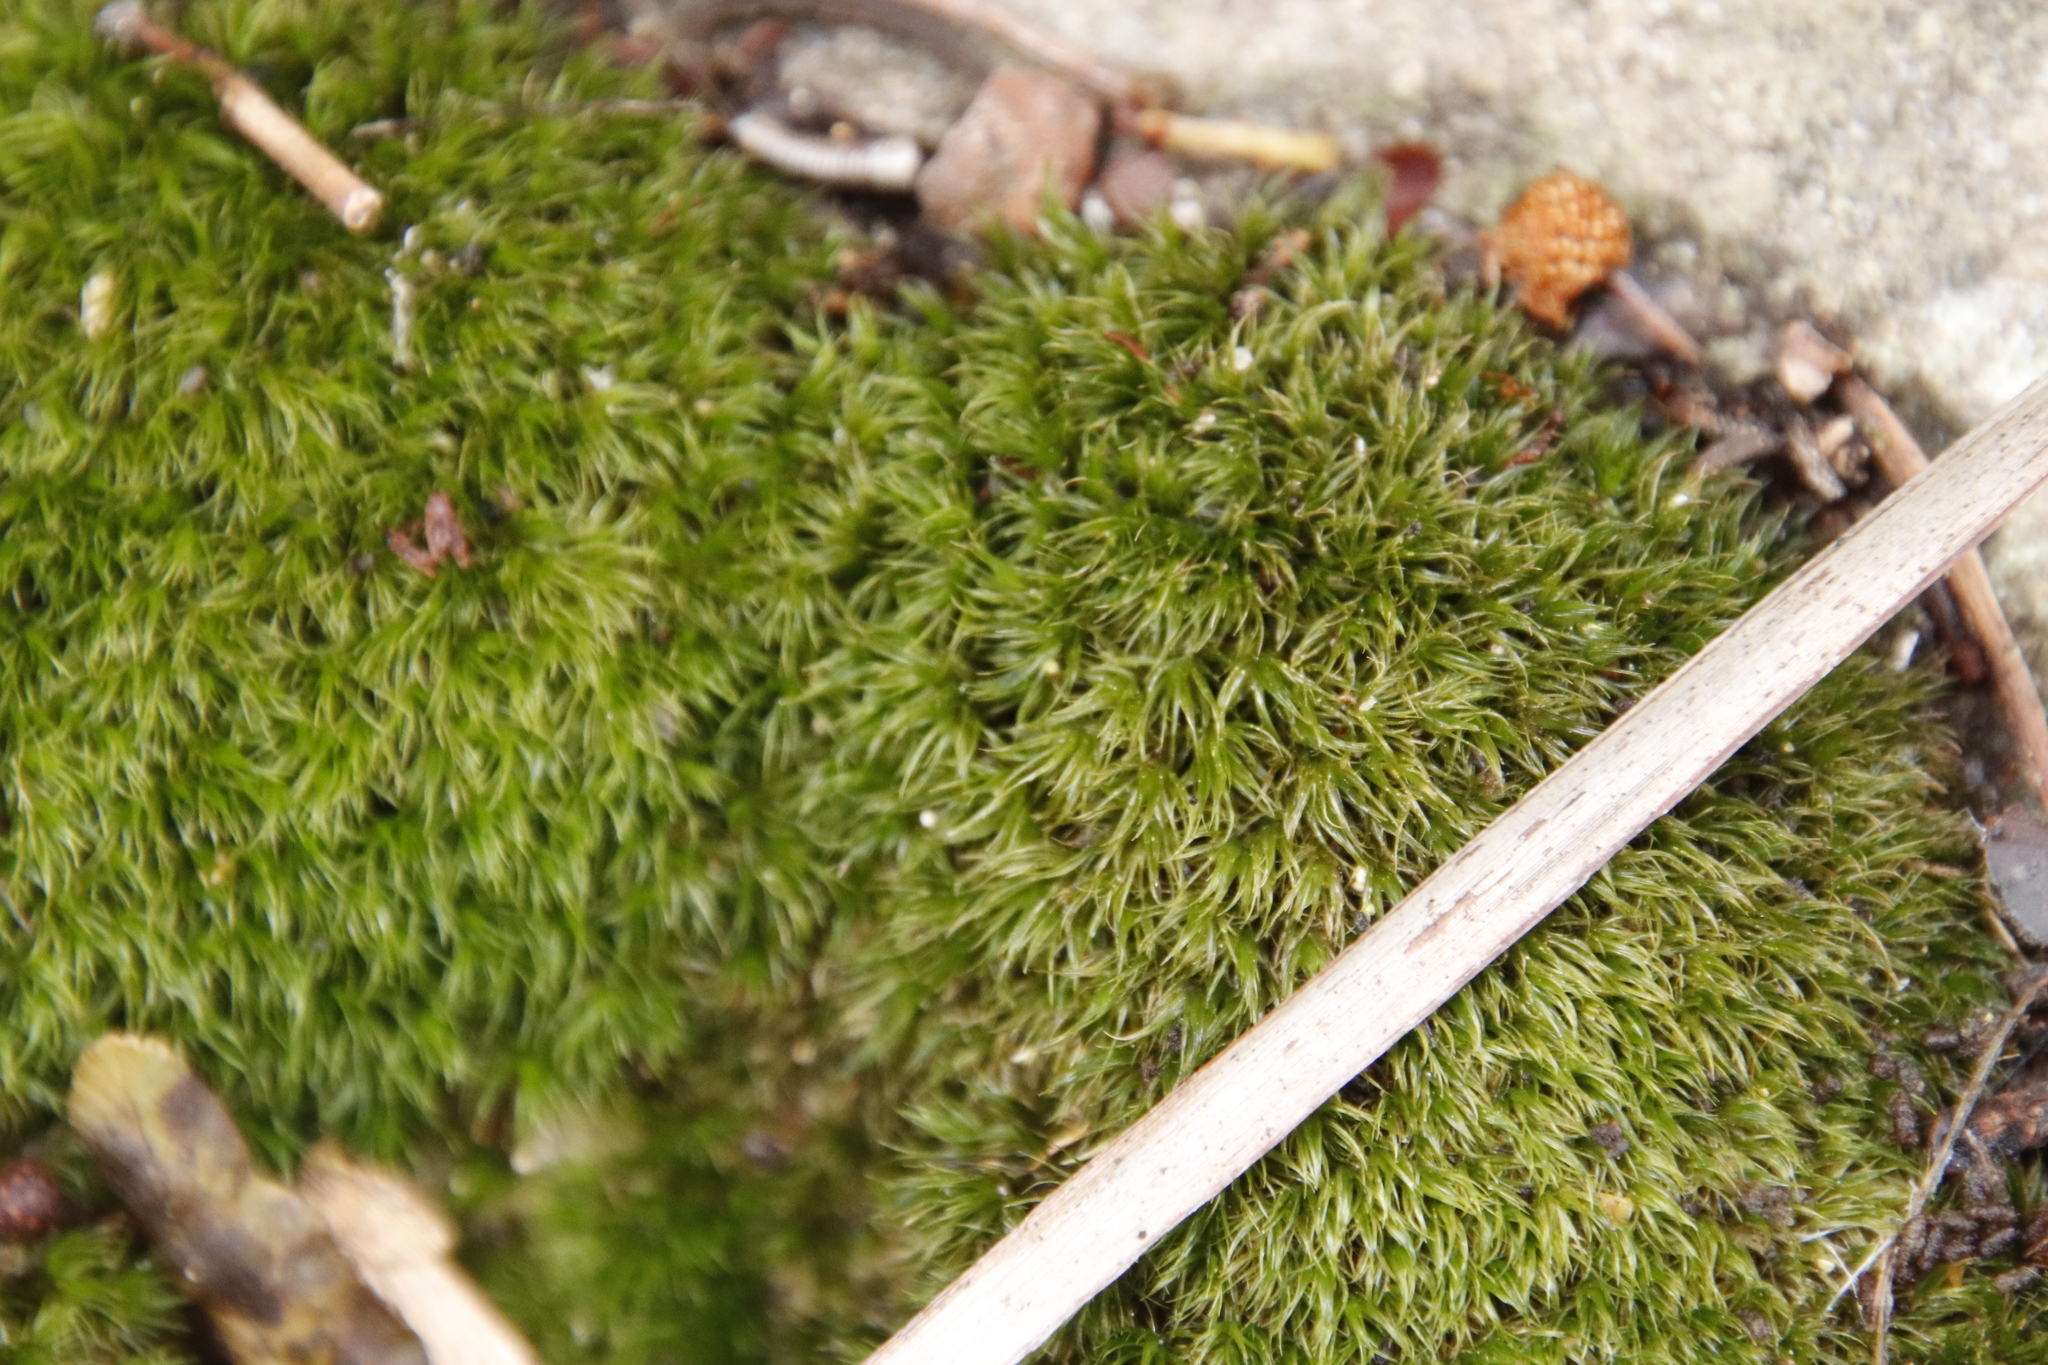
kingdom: Plantae
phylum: Bryophyta
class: Bryopsida
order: Dicranales
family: Dicranaceae
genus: Leucoloma
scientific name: Leucoloma sprengelianum
